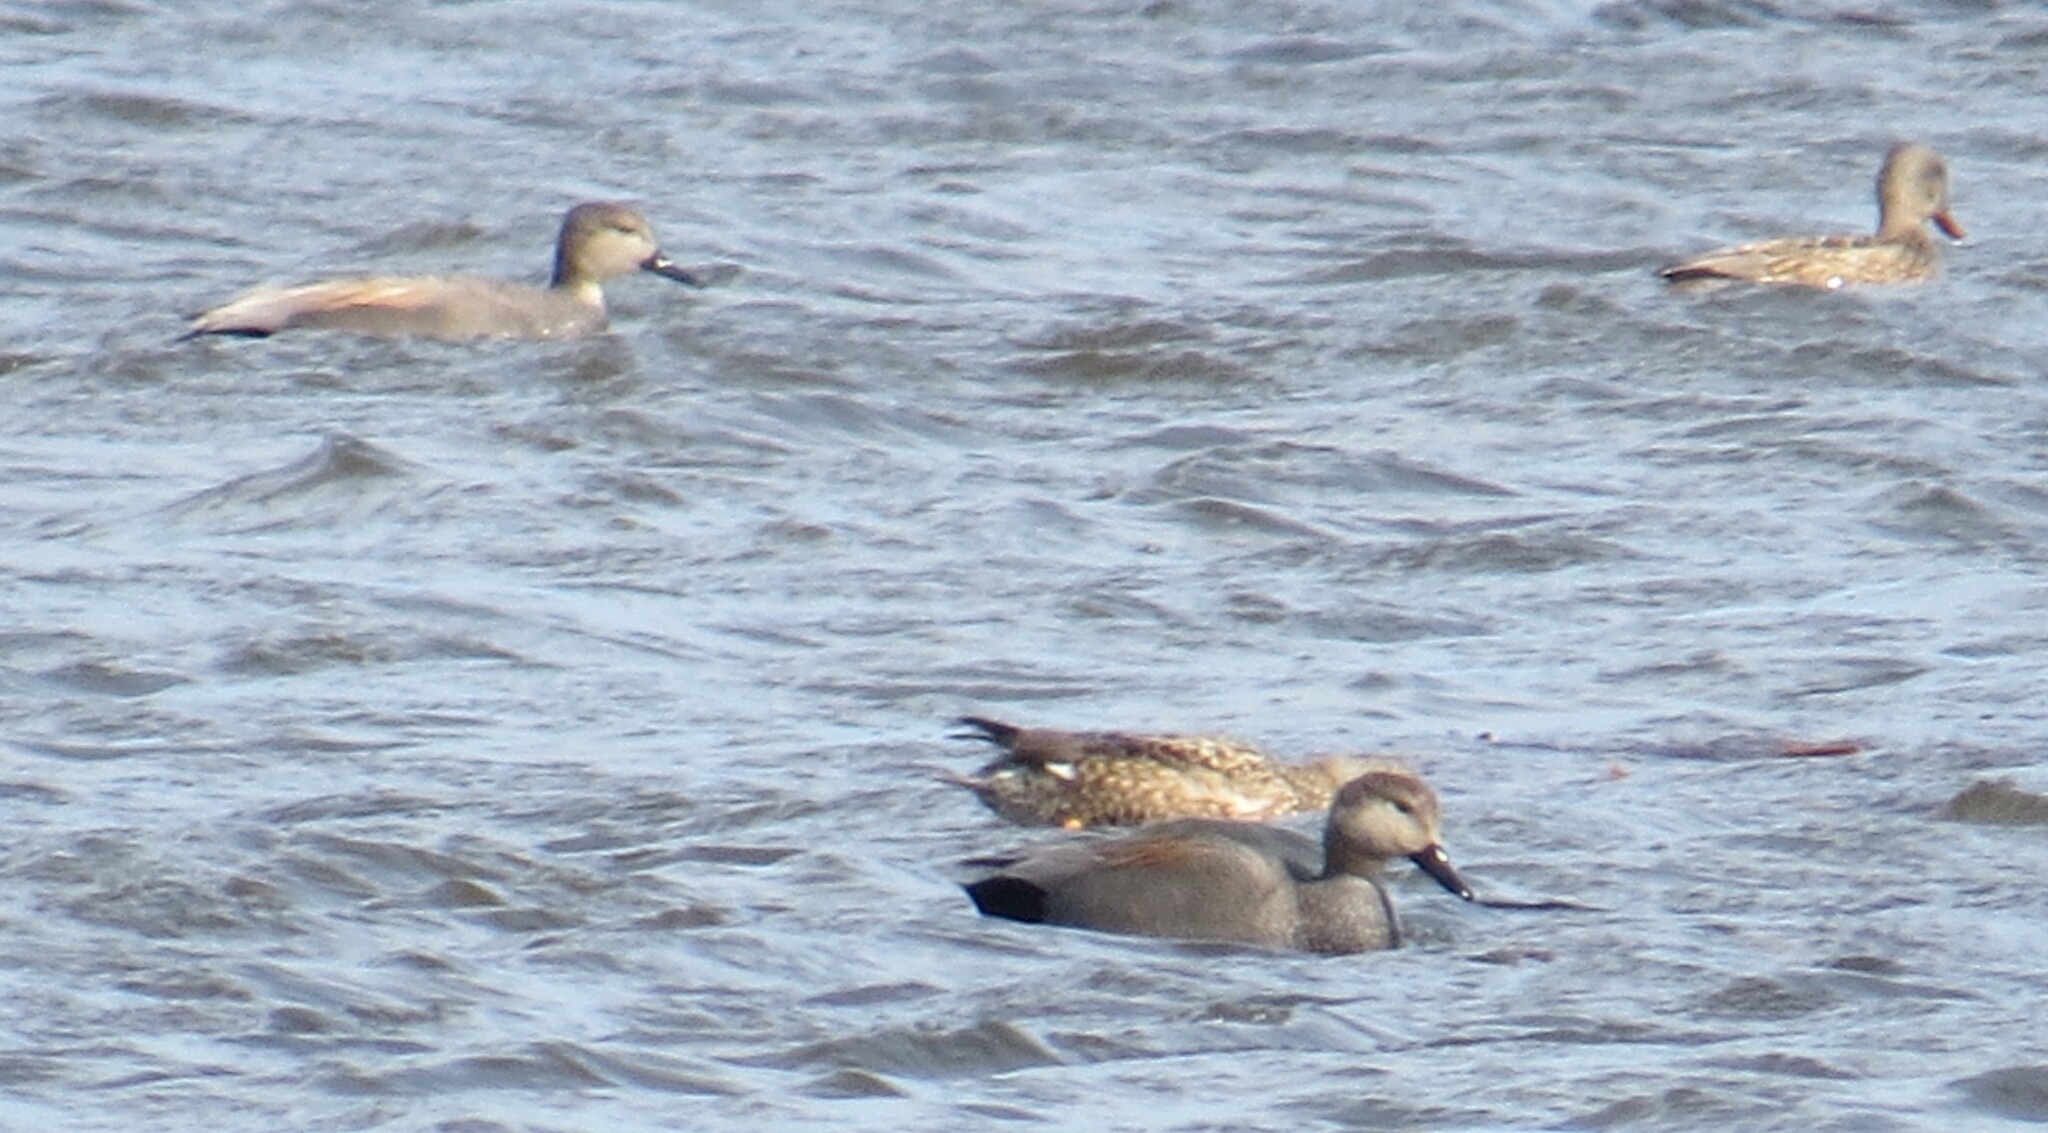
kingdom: Animalia
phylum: Chordata
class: Aves
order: Anseriformes
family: Anatidae
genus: Mareca
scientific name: Mareca strepera
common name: Gadwall
